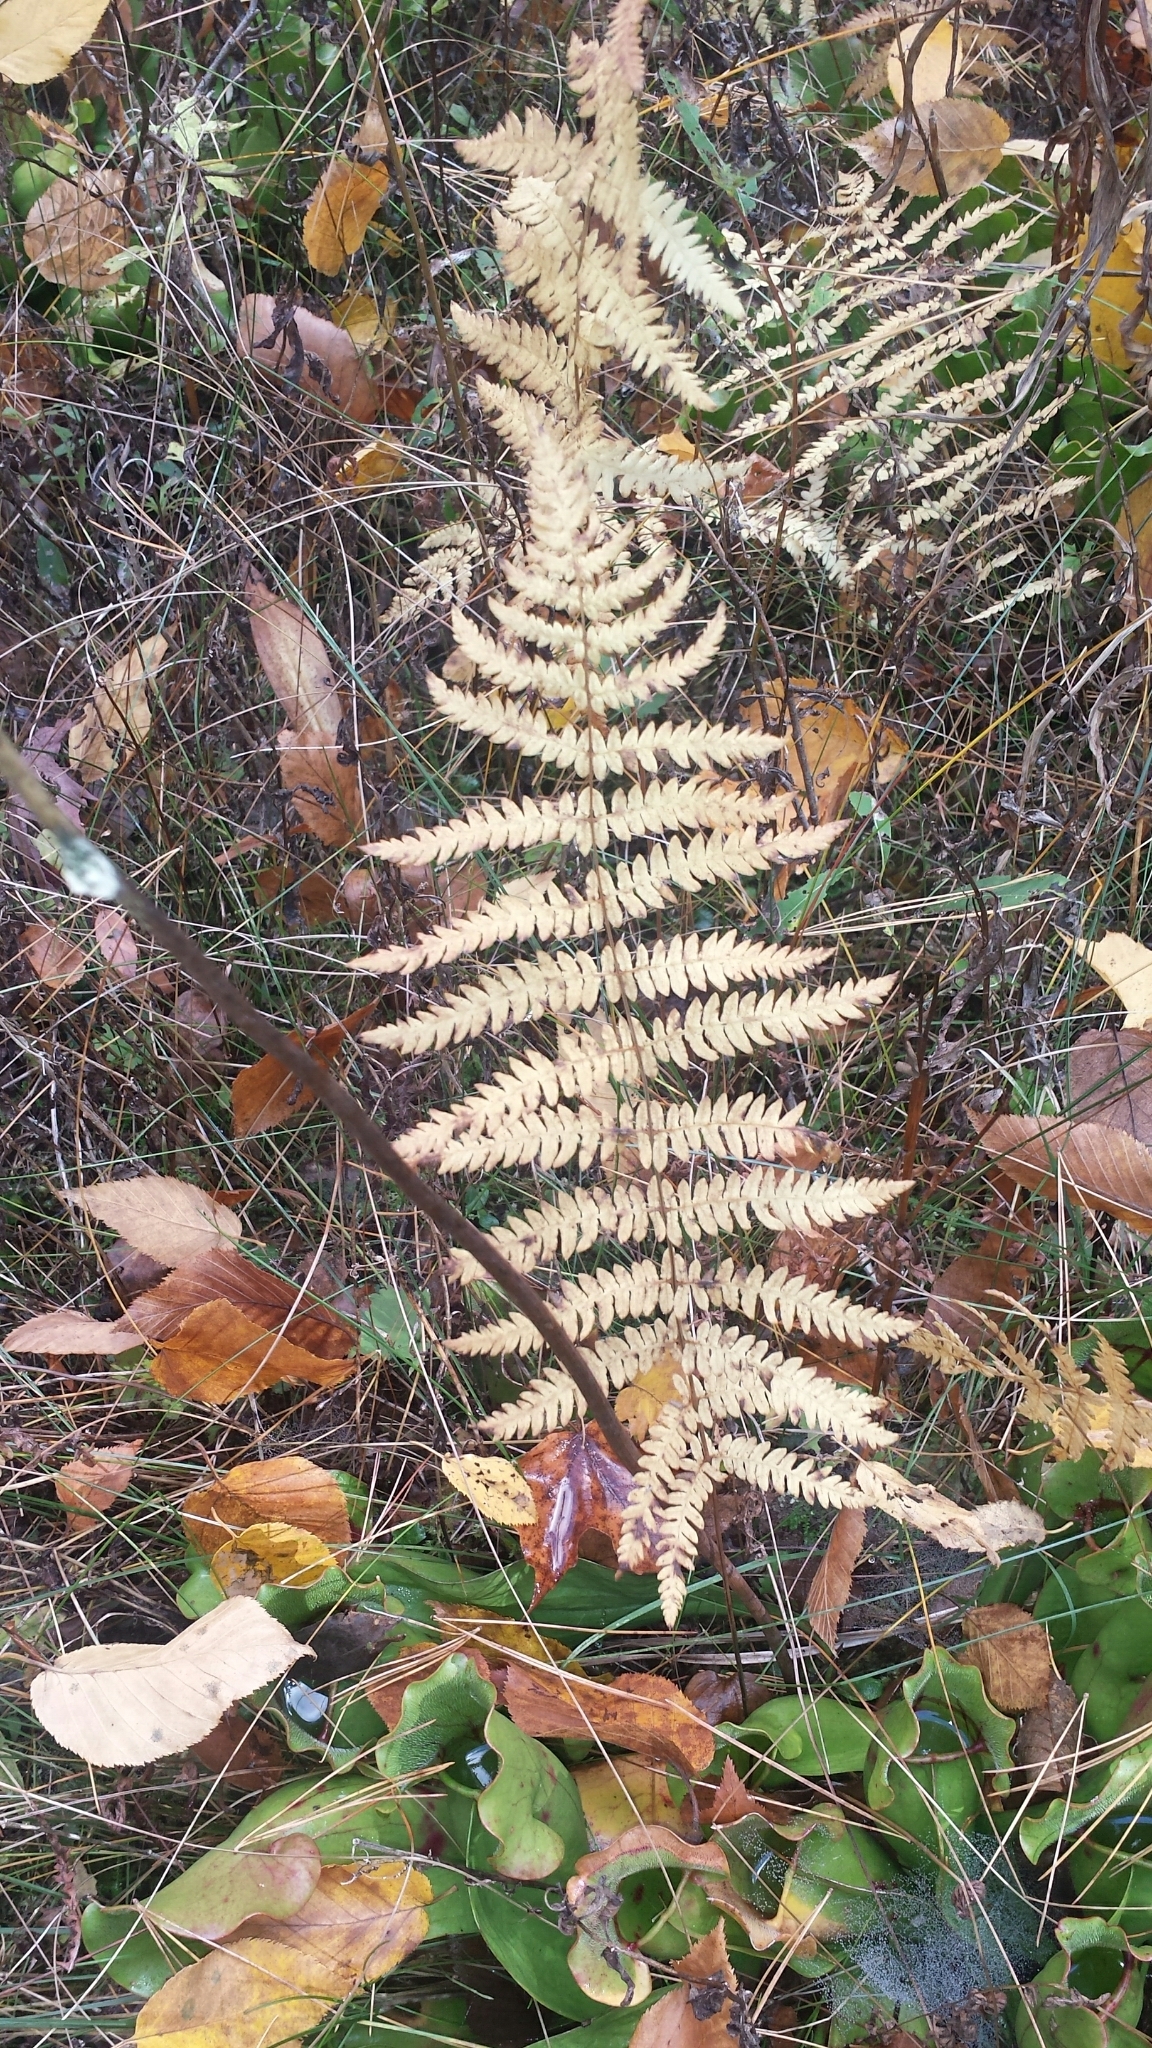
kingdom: Plantae
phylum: Tracheophyta
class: Polypodiopsida
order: Polypodiales
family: Thelypteridaceae
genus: Thelypteris
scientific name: Thelypteris palustris
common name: Marsh fern
